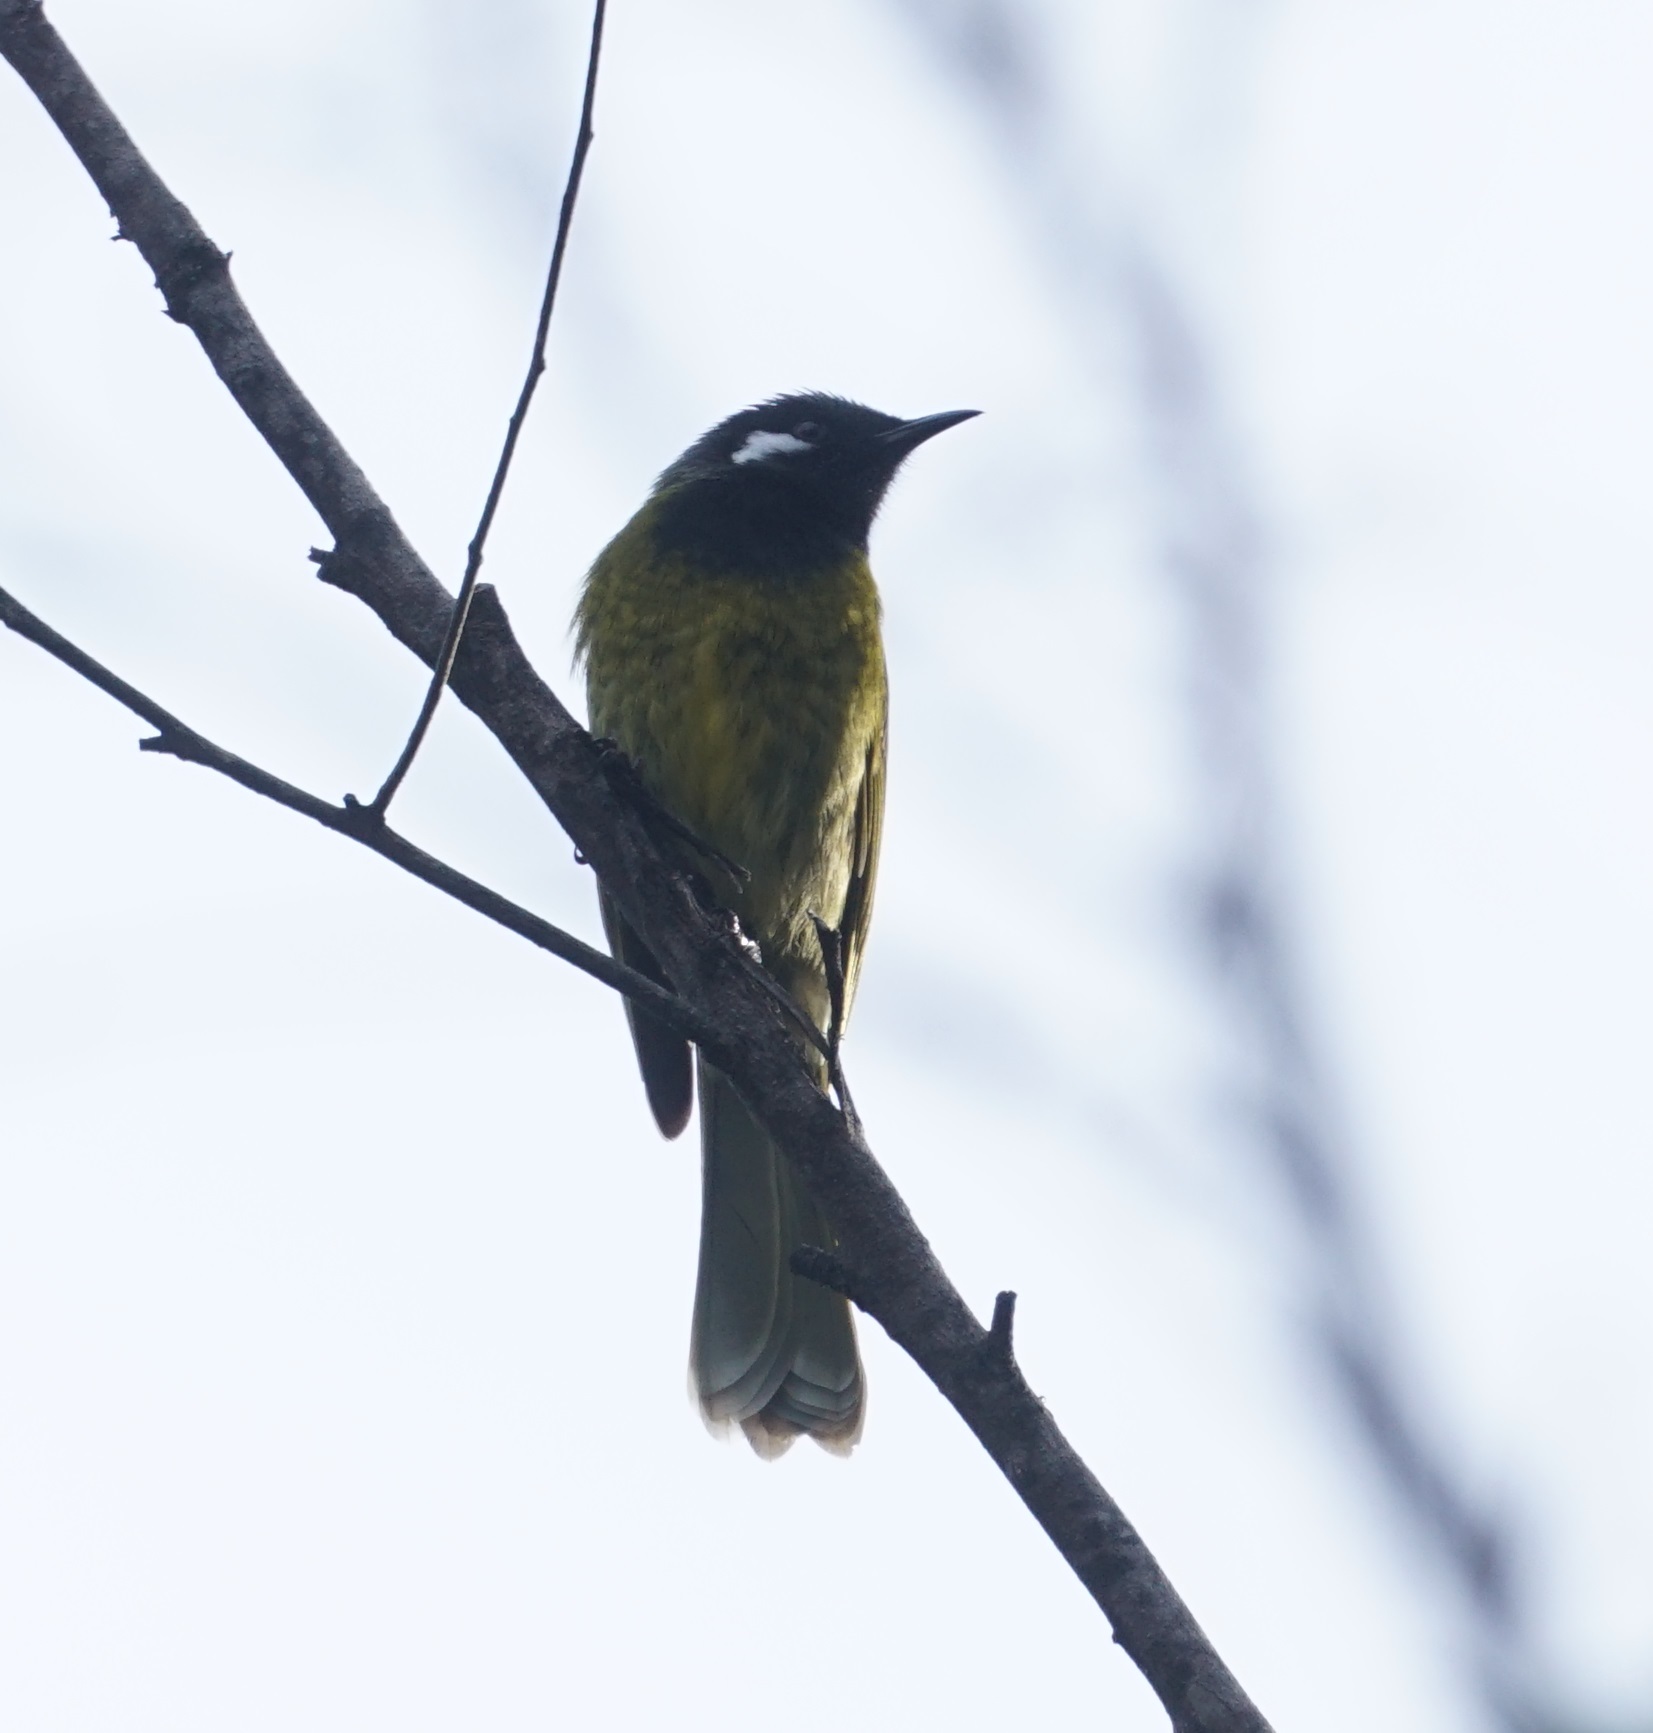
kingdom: Animalia
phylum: Chordata
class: Aves
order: Passeriformes
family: Meliphagidae
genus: Nesoptilotis
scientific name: Nesoptilotis leucotis
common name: White-eared honeyeater
